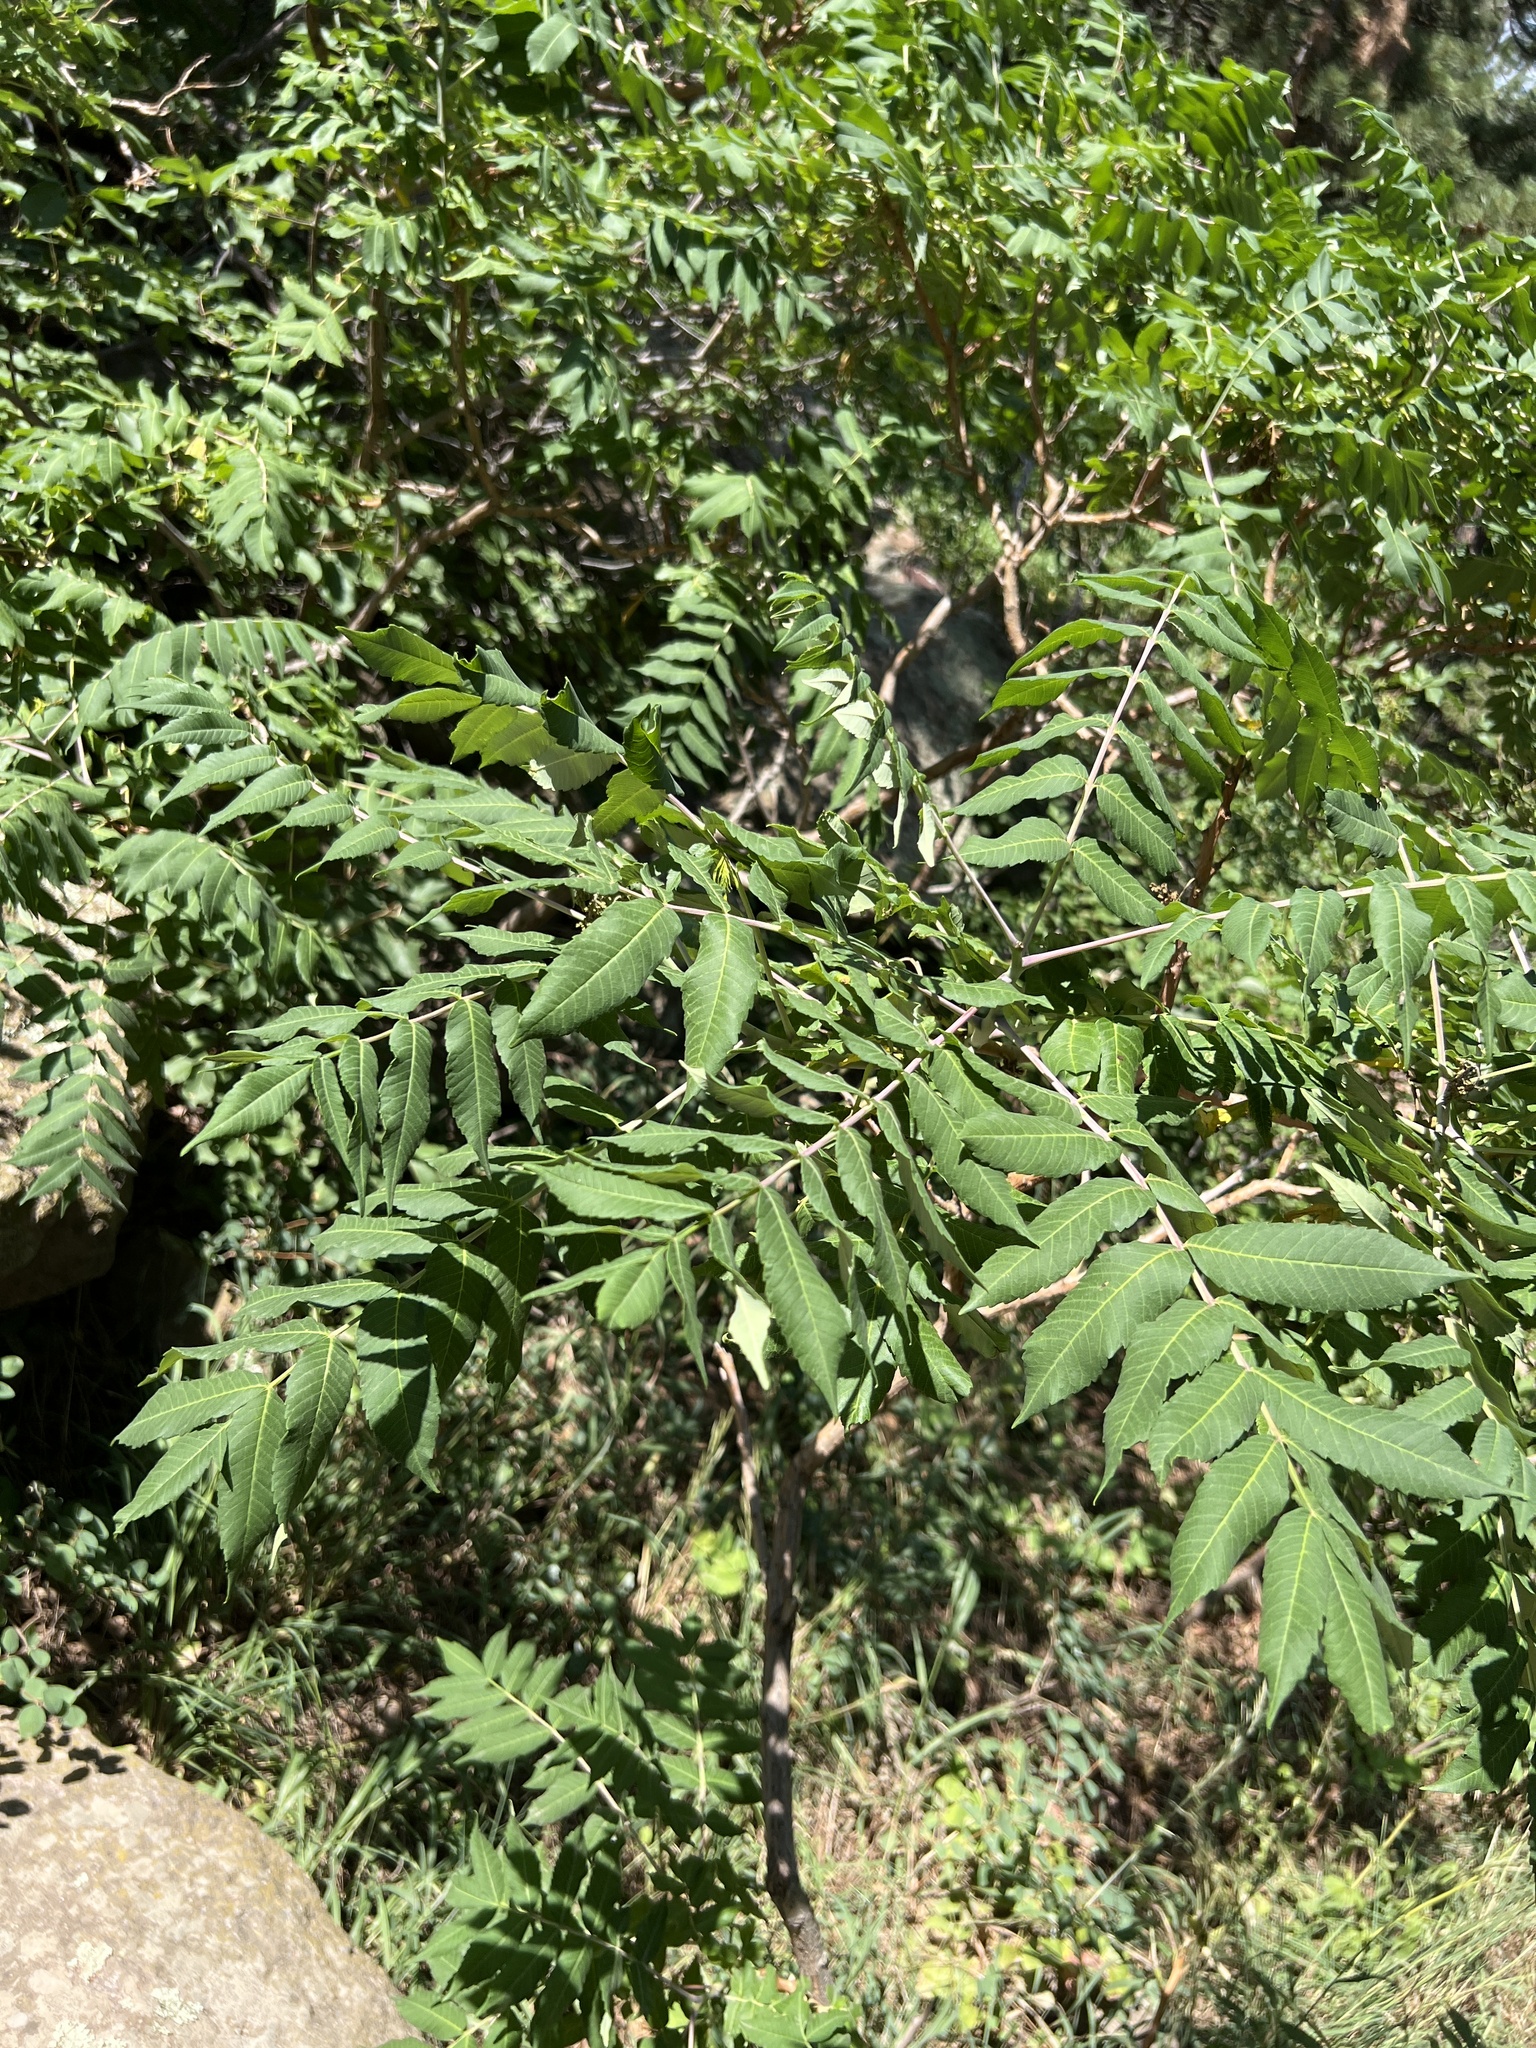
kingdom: Plantae
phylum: Tracheophyta
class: Magnoliopsida
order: Sapindales
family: Anacardiaceae
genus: Rhus
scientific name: Rhus glabra
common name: Scarlet sumac
